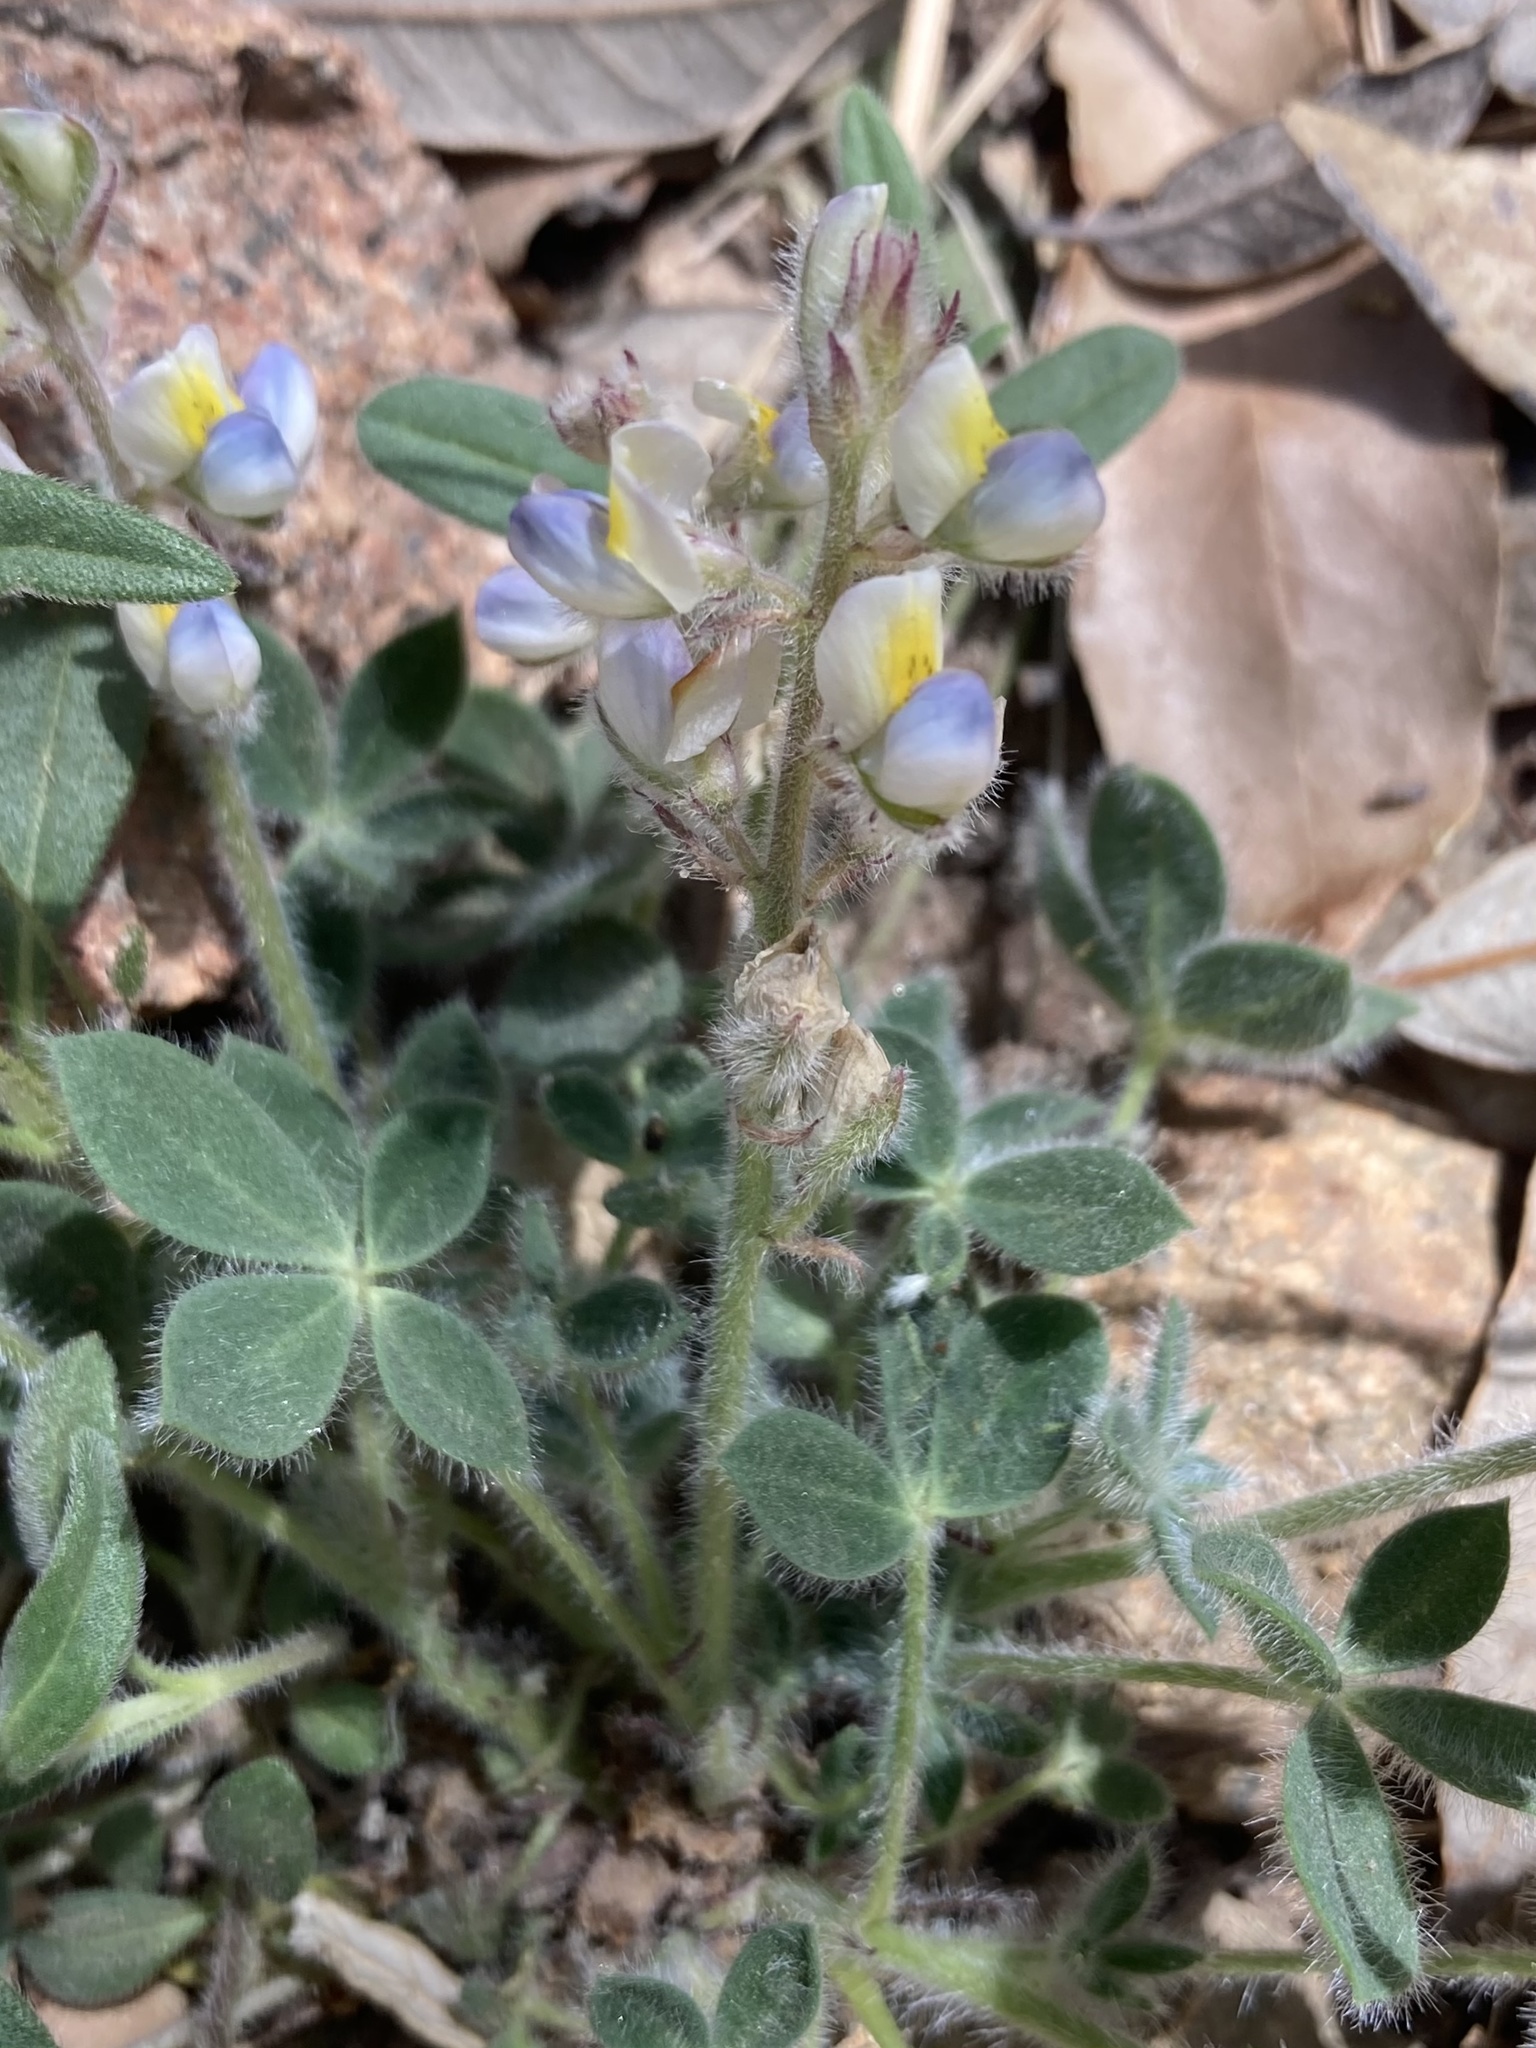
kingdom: Plantae
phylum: Tracheophyta
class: Magnoliopsida
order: Fabales
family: Fabaceae
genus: Lupinus
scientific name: Lupinus huachucanus
